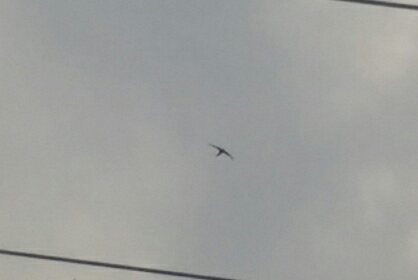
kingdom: Animalia
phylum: Chordata
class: Aves
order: Apodiformes
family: Apodidae
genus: Apus
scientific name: Apus apus
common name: Common swift
